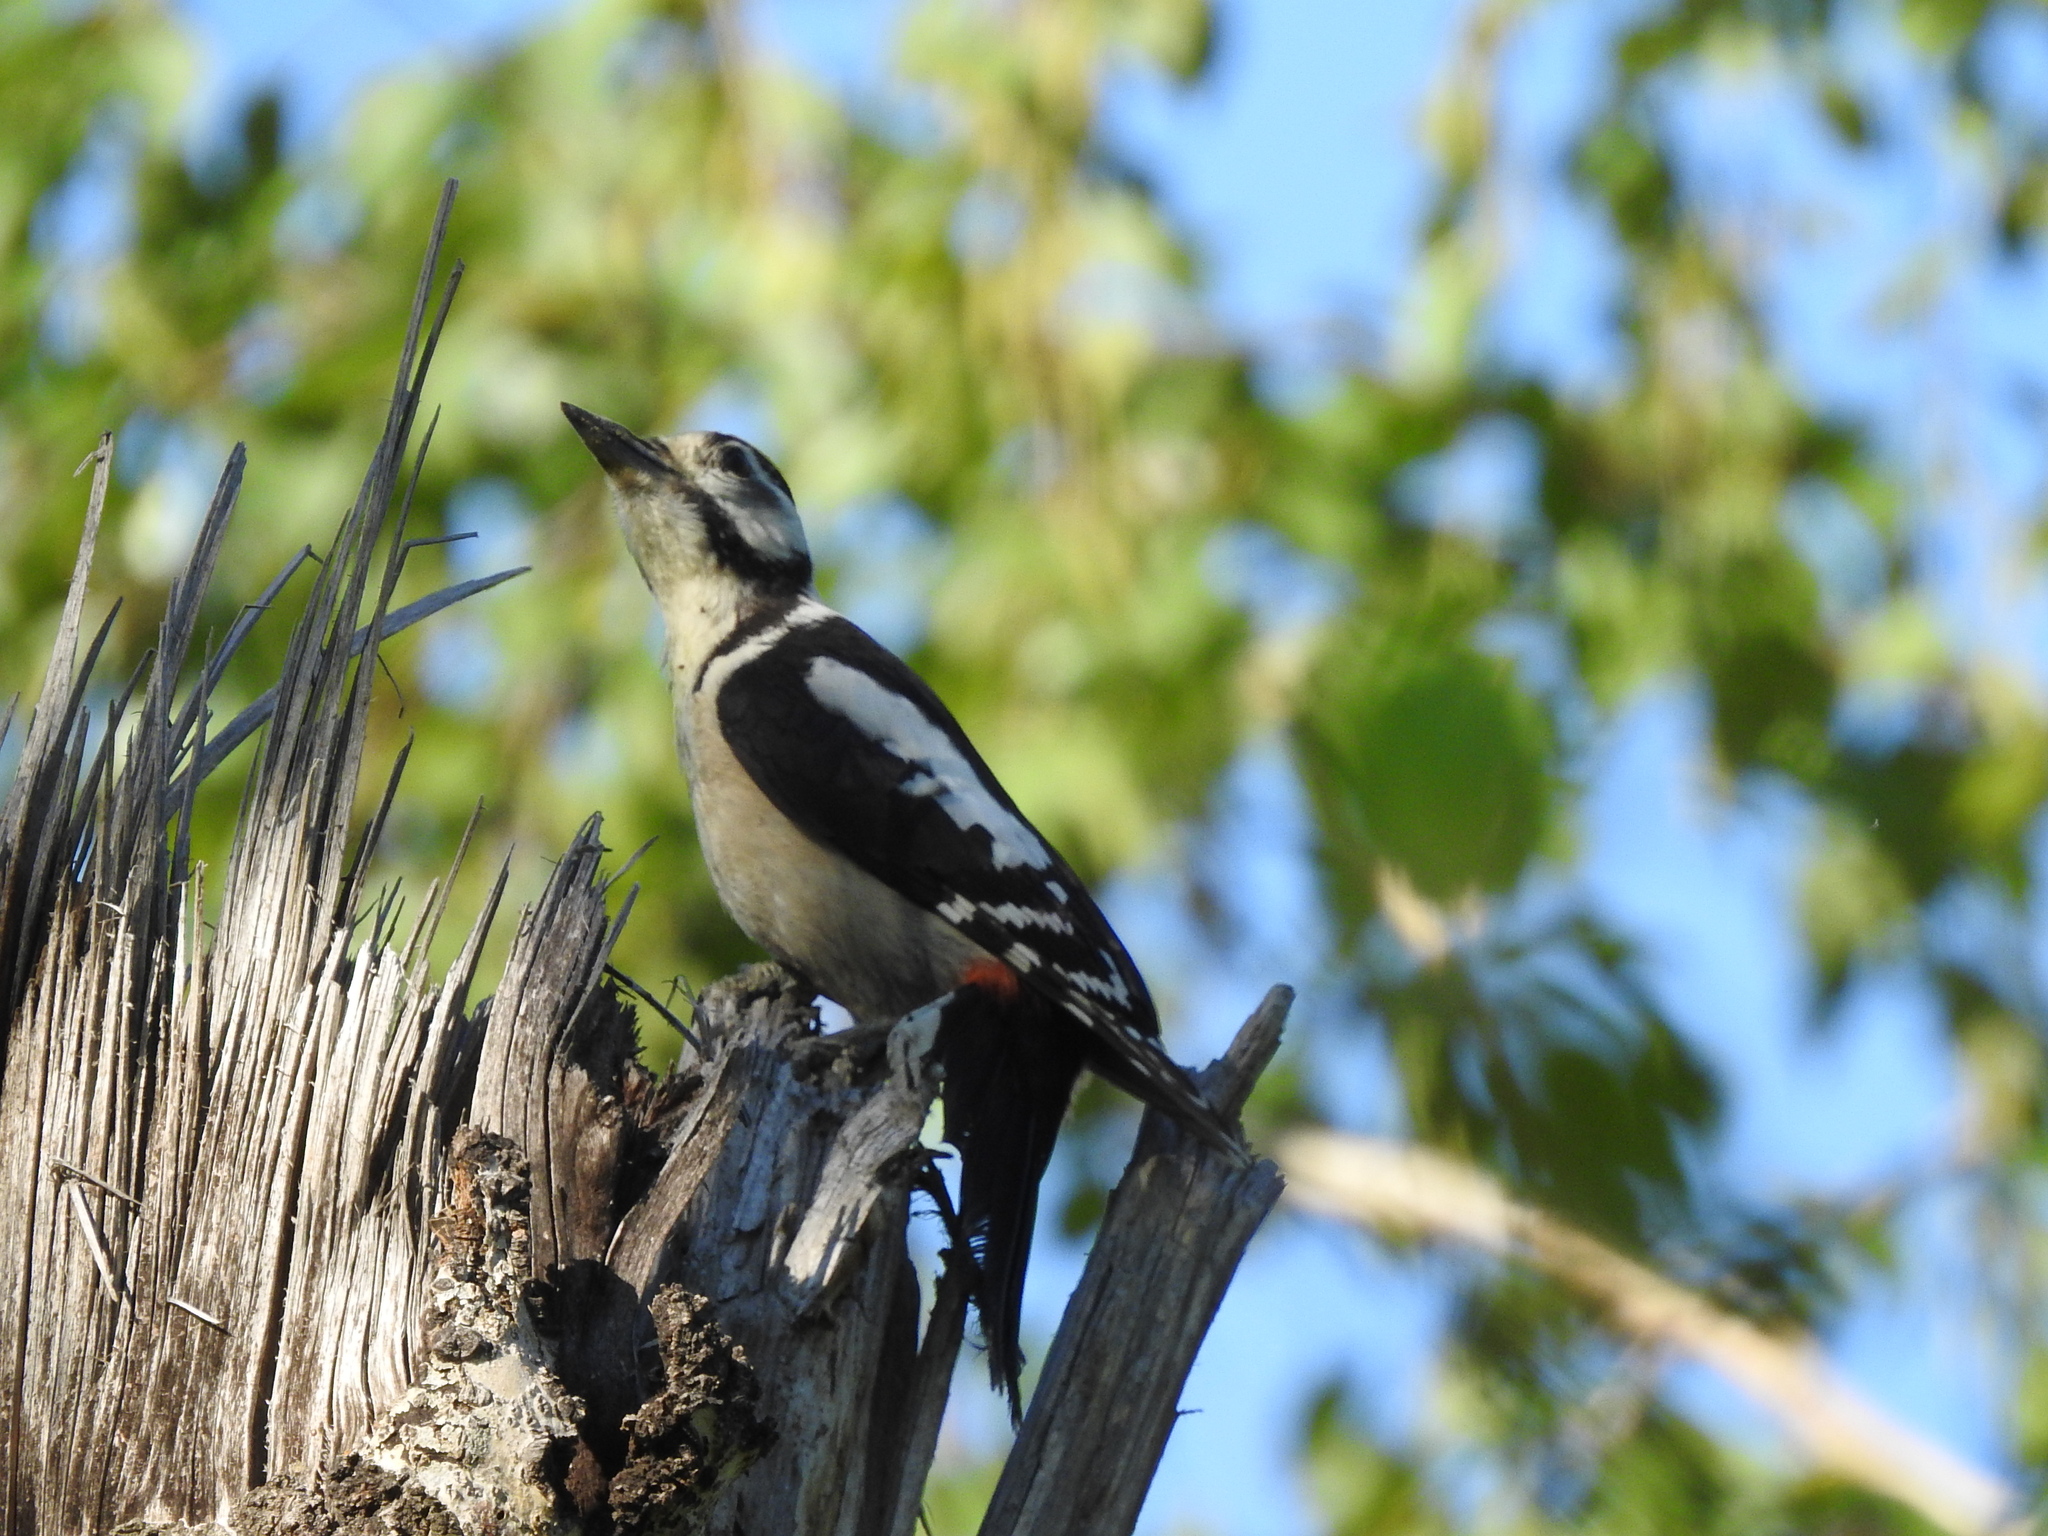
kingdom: Animalia
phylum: Chordata
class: Aves
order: Piciformes
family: Picidae
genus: Dendrocopos
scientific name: Dendrocopos major
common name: Great spotted woodpecker
